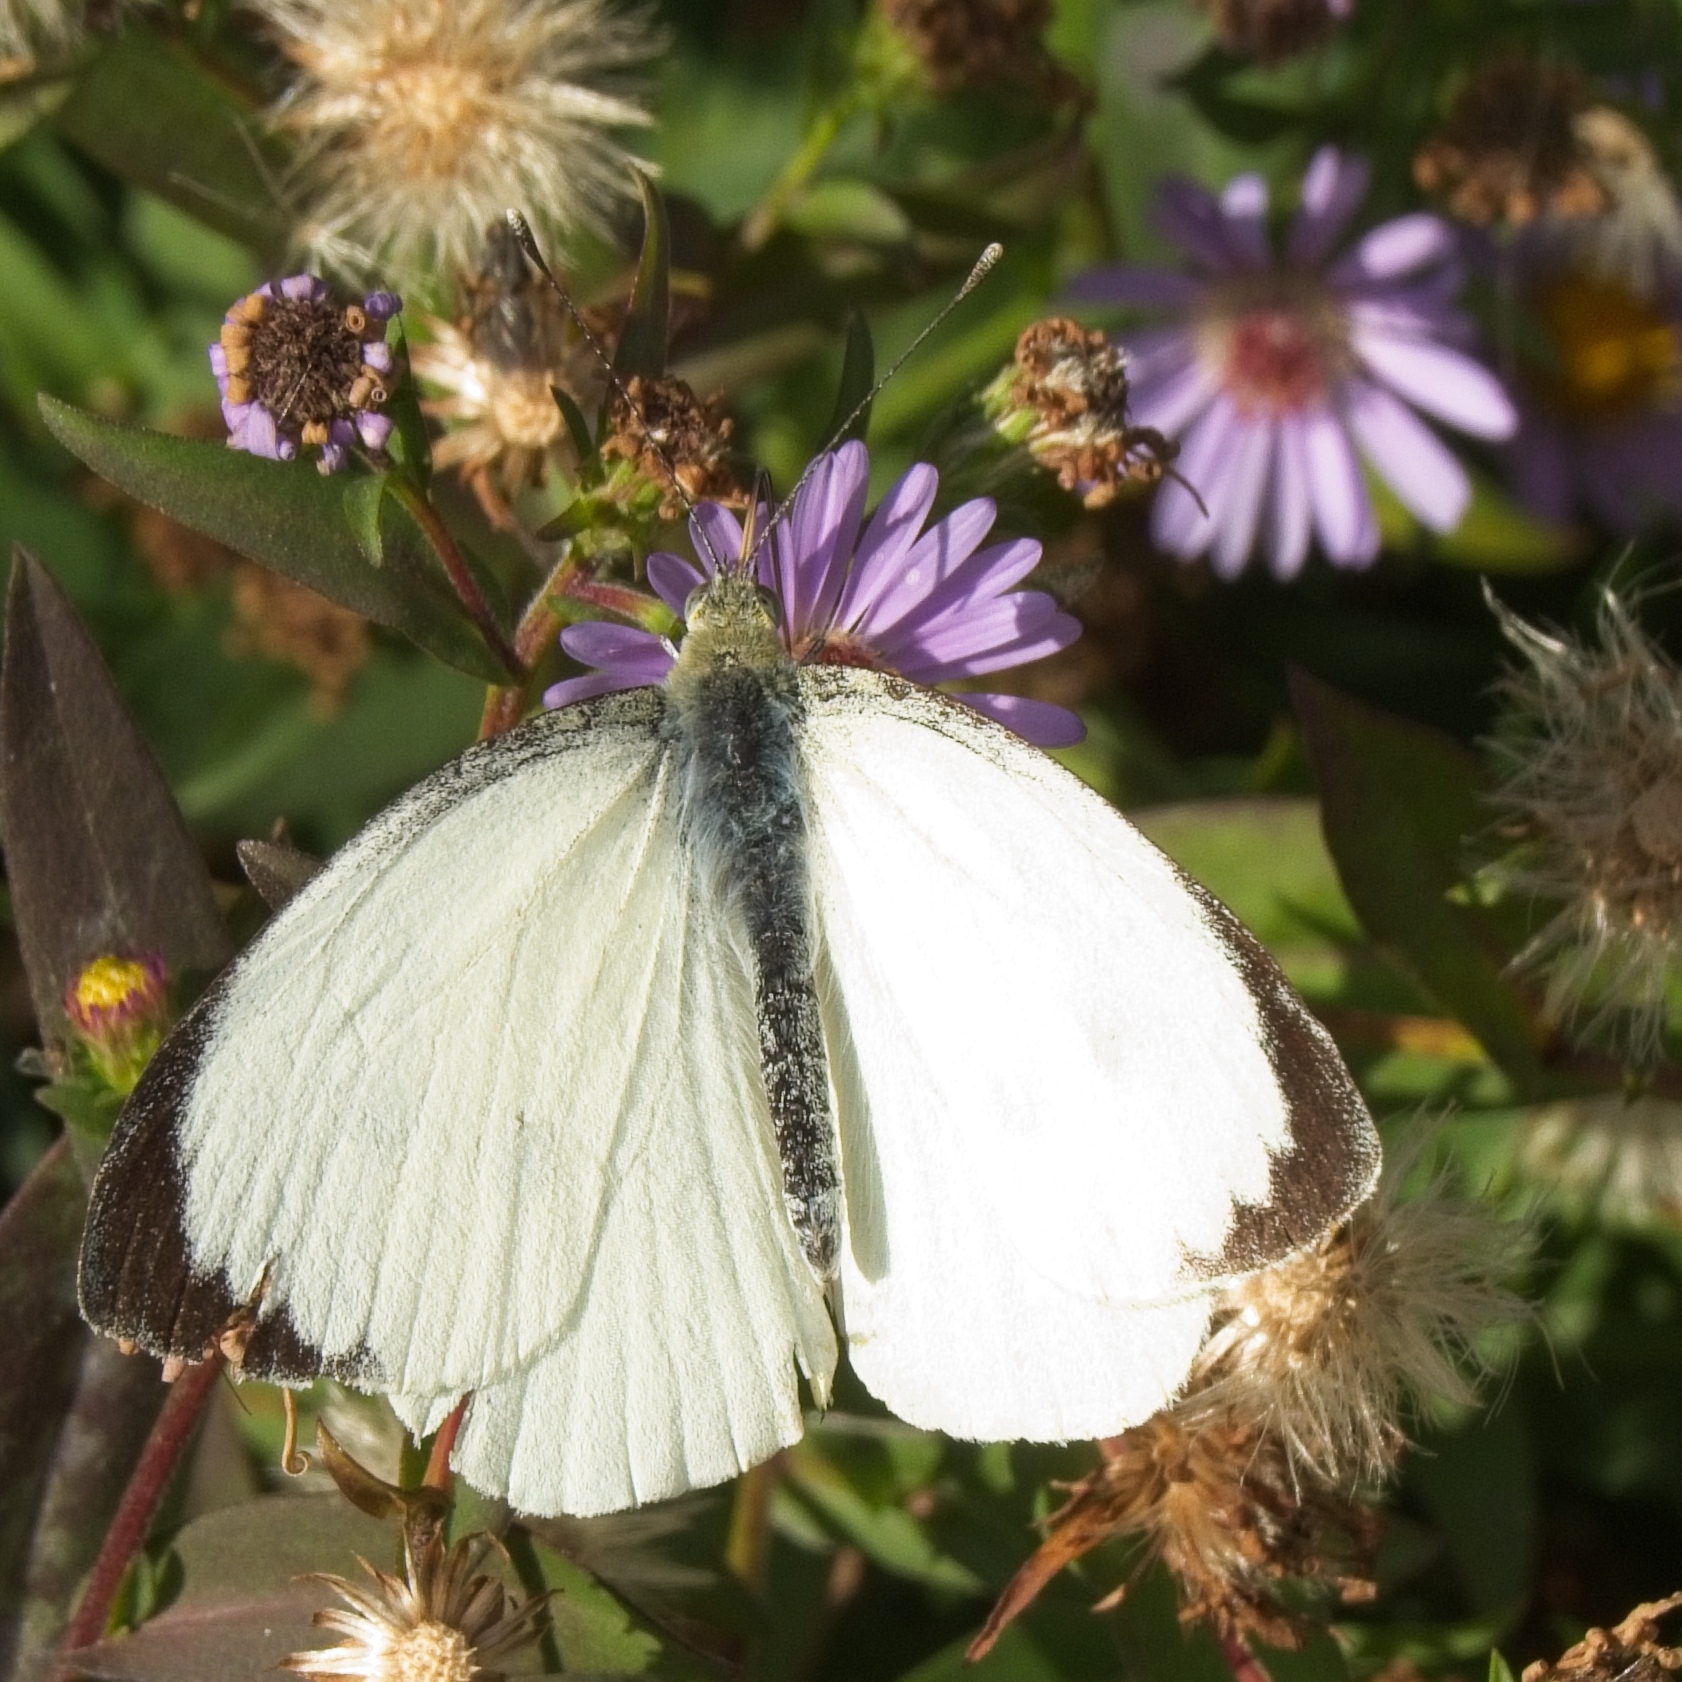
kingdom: Animalia
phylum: Arthropoda
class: Insecta
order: Lepidoptera
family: Pieridae
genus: Pieris
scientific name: Pieris brassicae
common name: Large white
